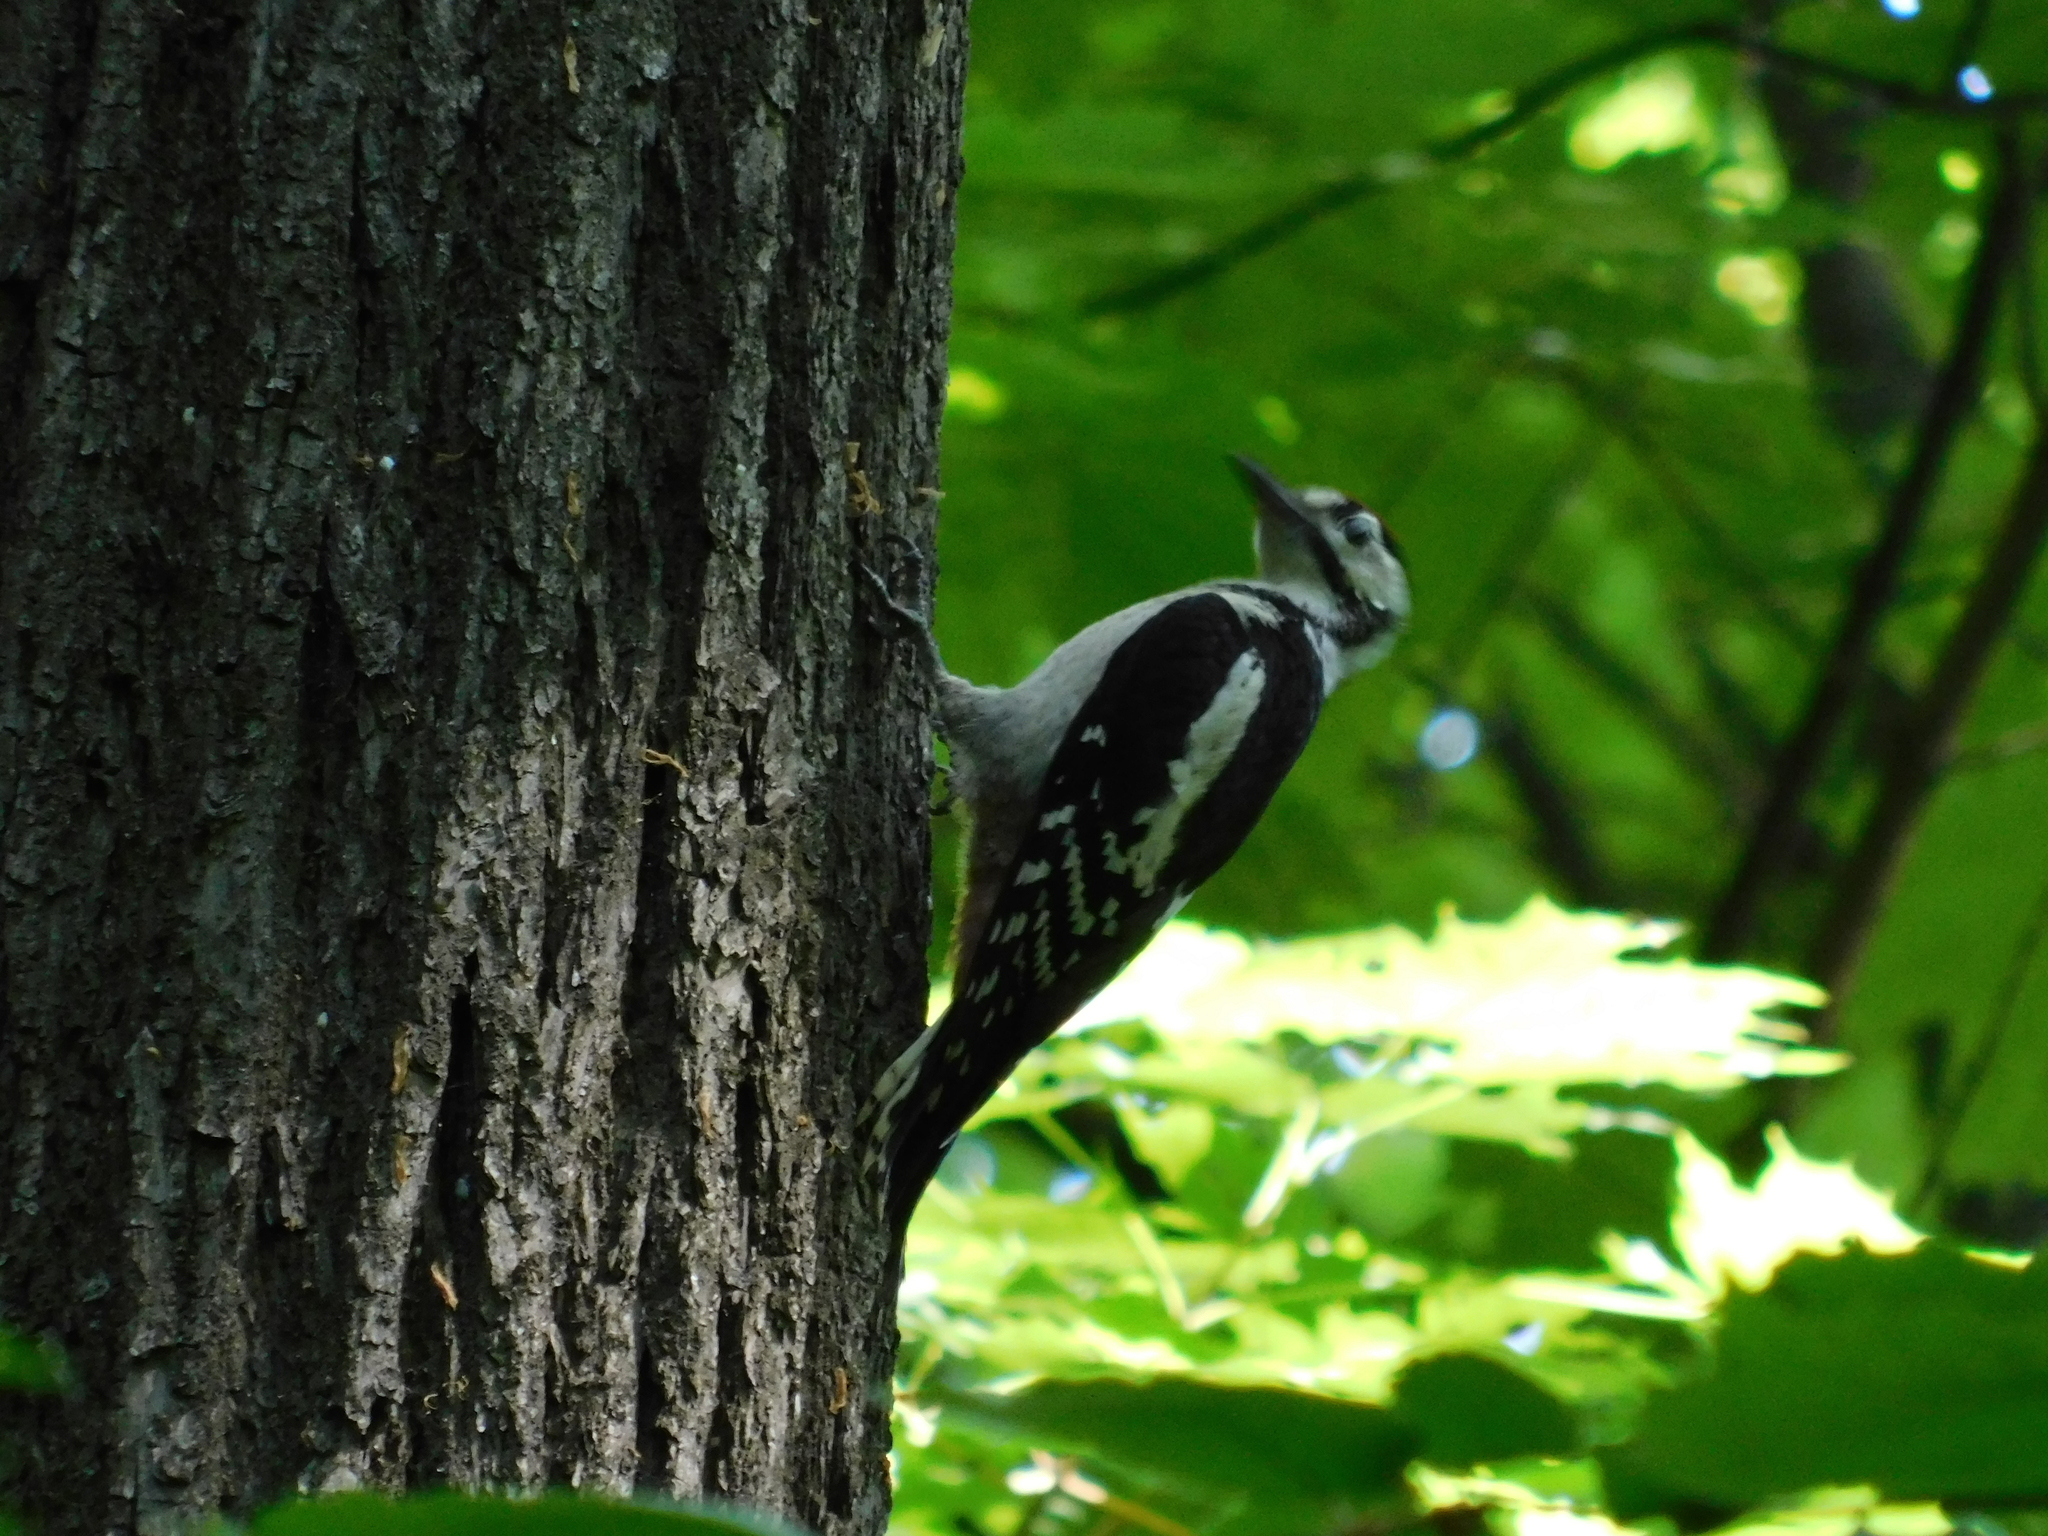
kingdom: Animalia
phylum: Chordata
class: Aves
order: Piciformes
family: Picidae
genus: Dendrocopos
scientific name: Dendrocopos major
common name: Great spotted woodpecker
